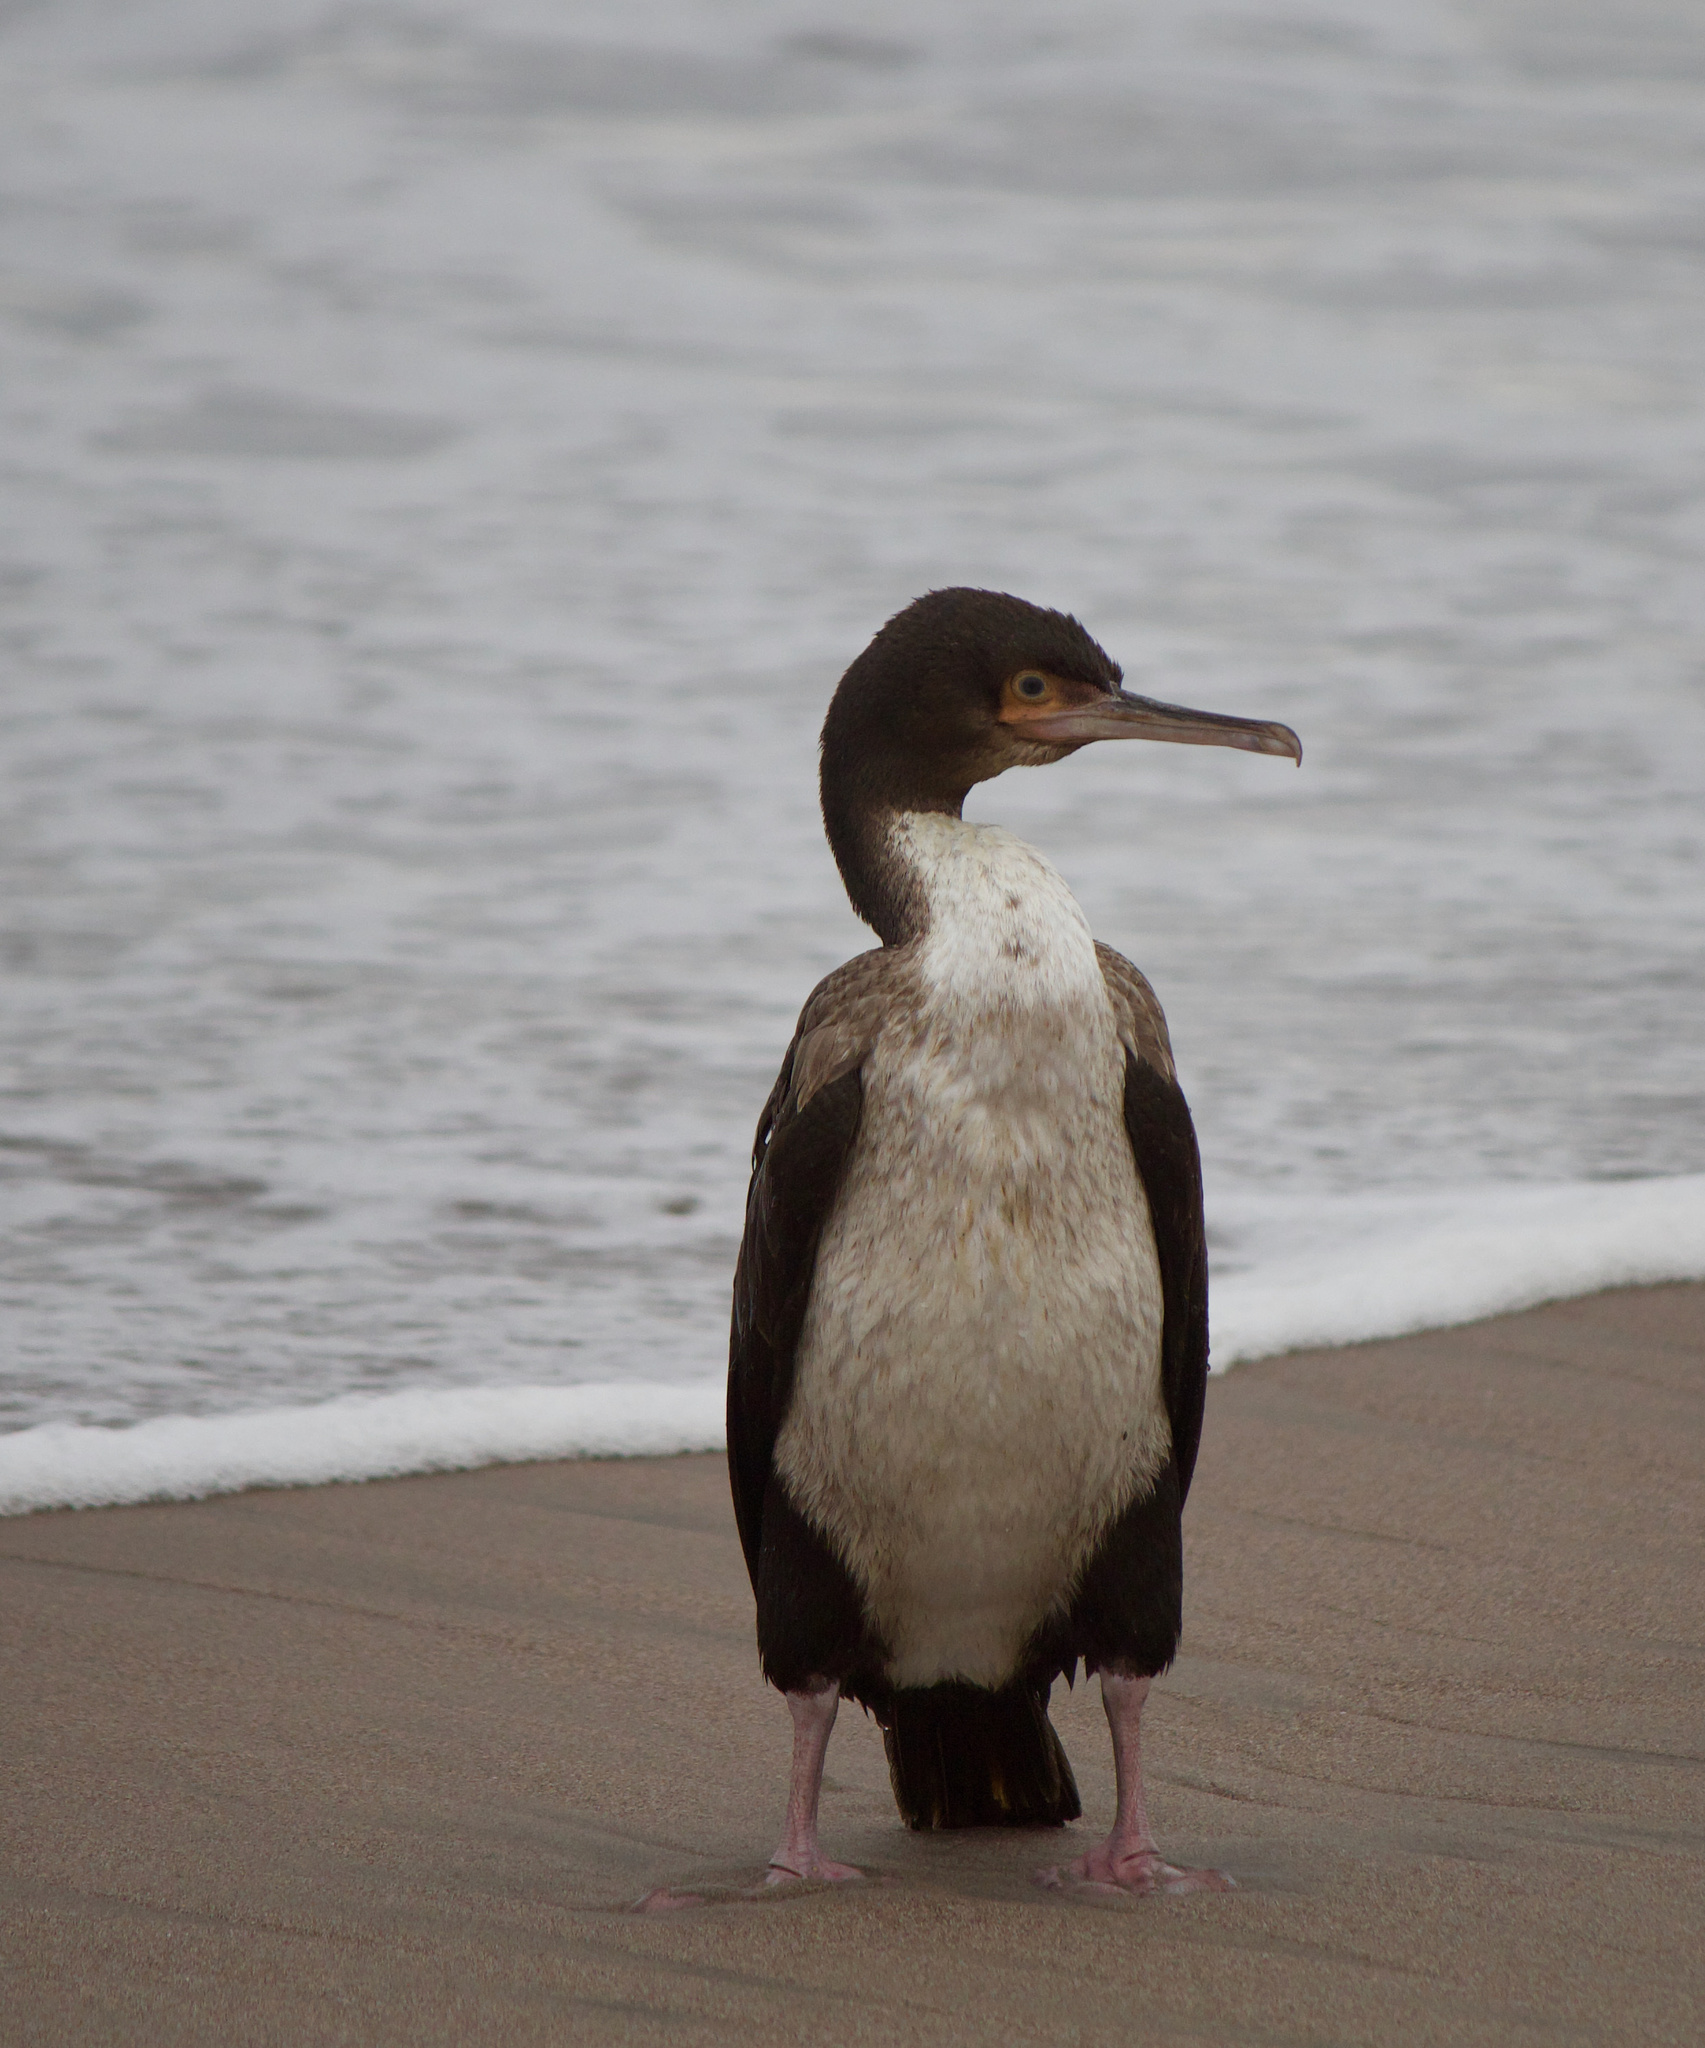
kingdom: Animalia
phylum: Chordata
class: Aves
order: Suliformes
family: Phalacrocoracidae
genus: Leucocarbo
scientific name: Leucocarbo bougainvillii
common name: Guanay cormorant
